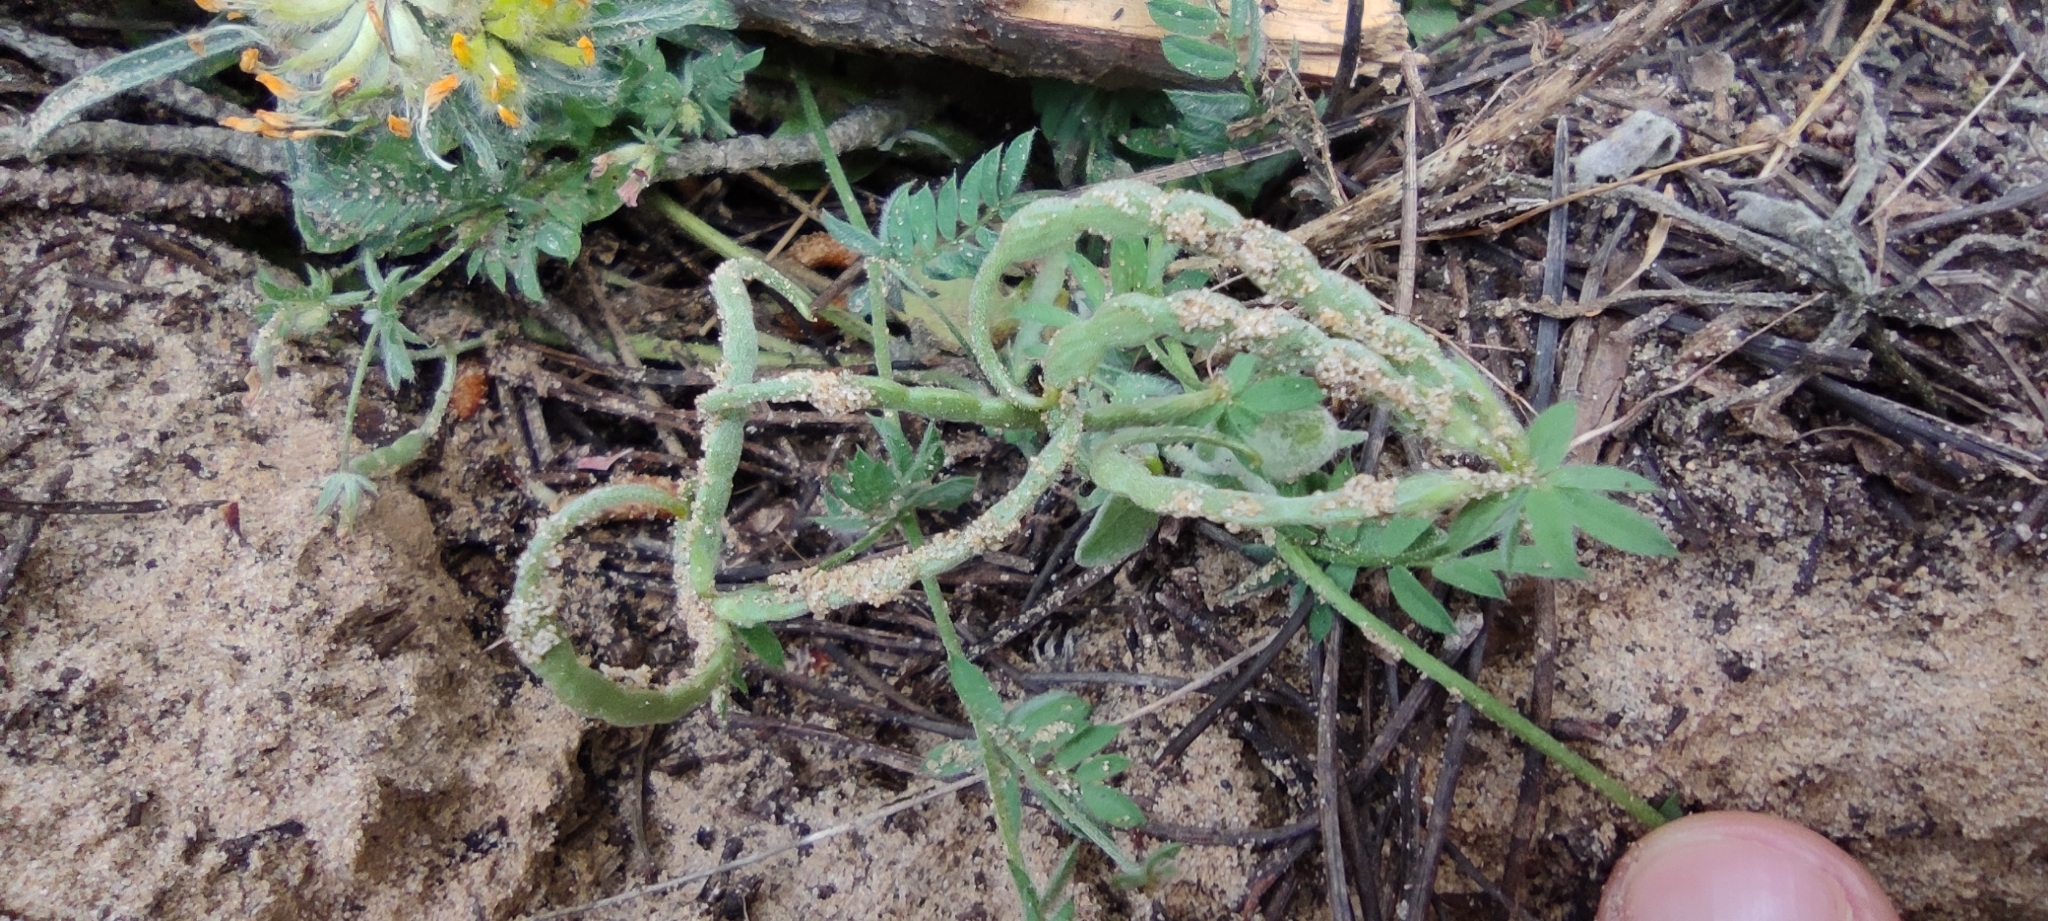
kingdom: Plantae
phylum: Tracheophyta
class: Magnoliopsida
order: Fabales
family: Fabaceae
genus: Ornithopus
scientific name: Ornithopus sativus
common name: Serradella
